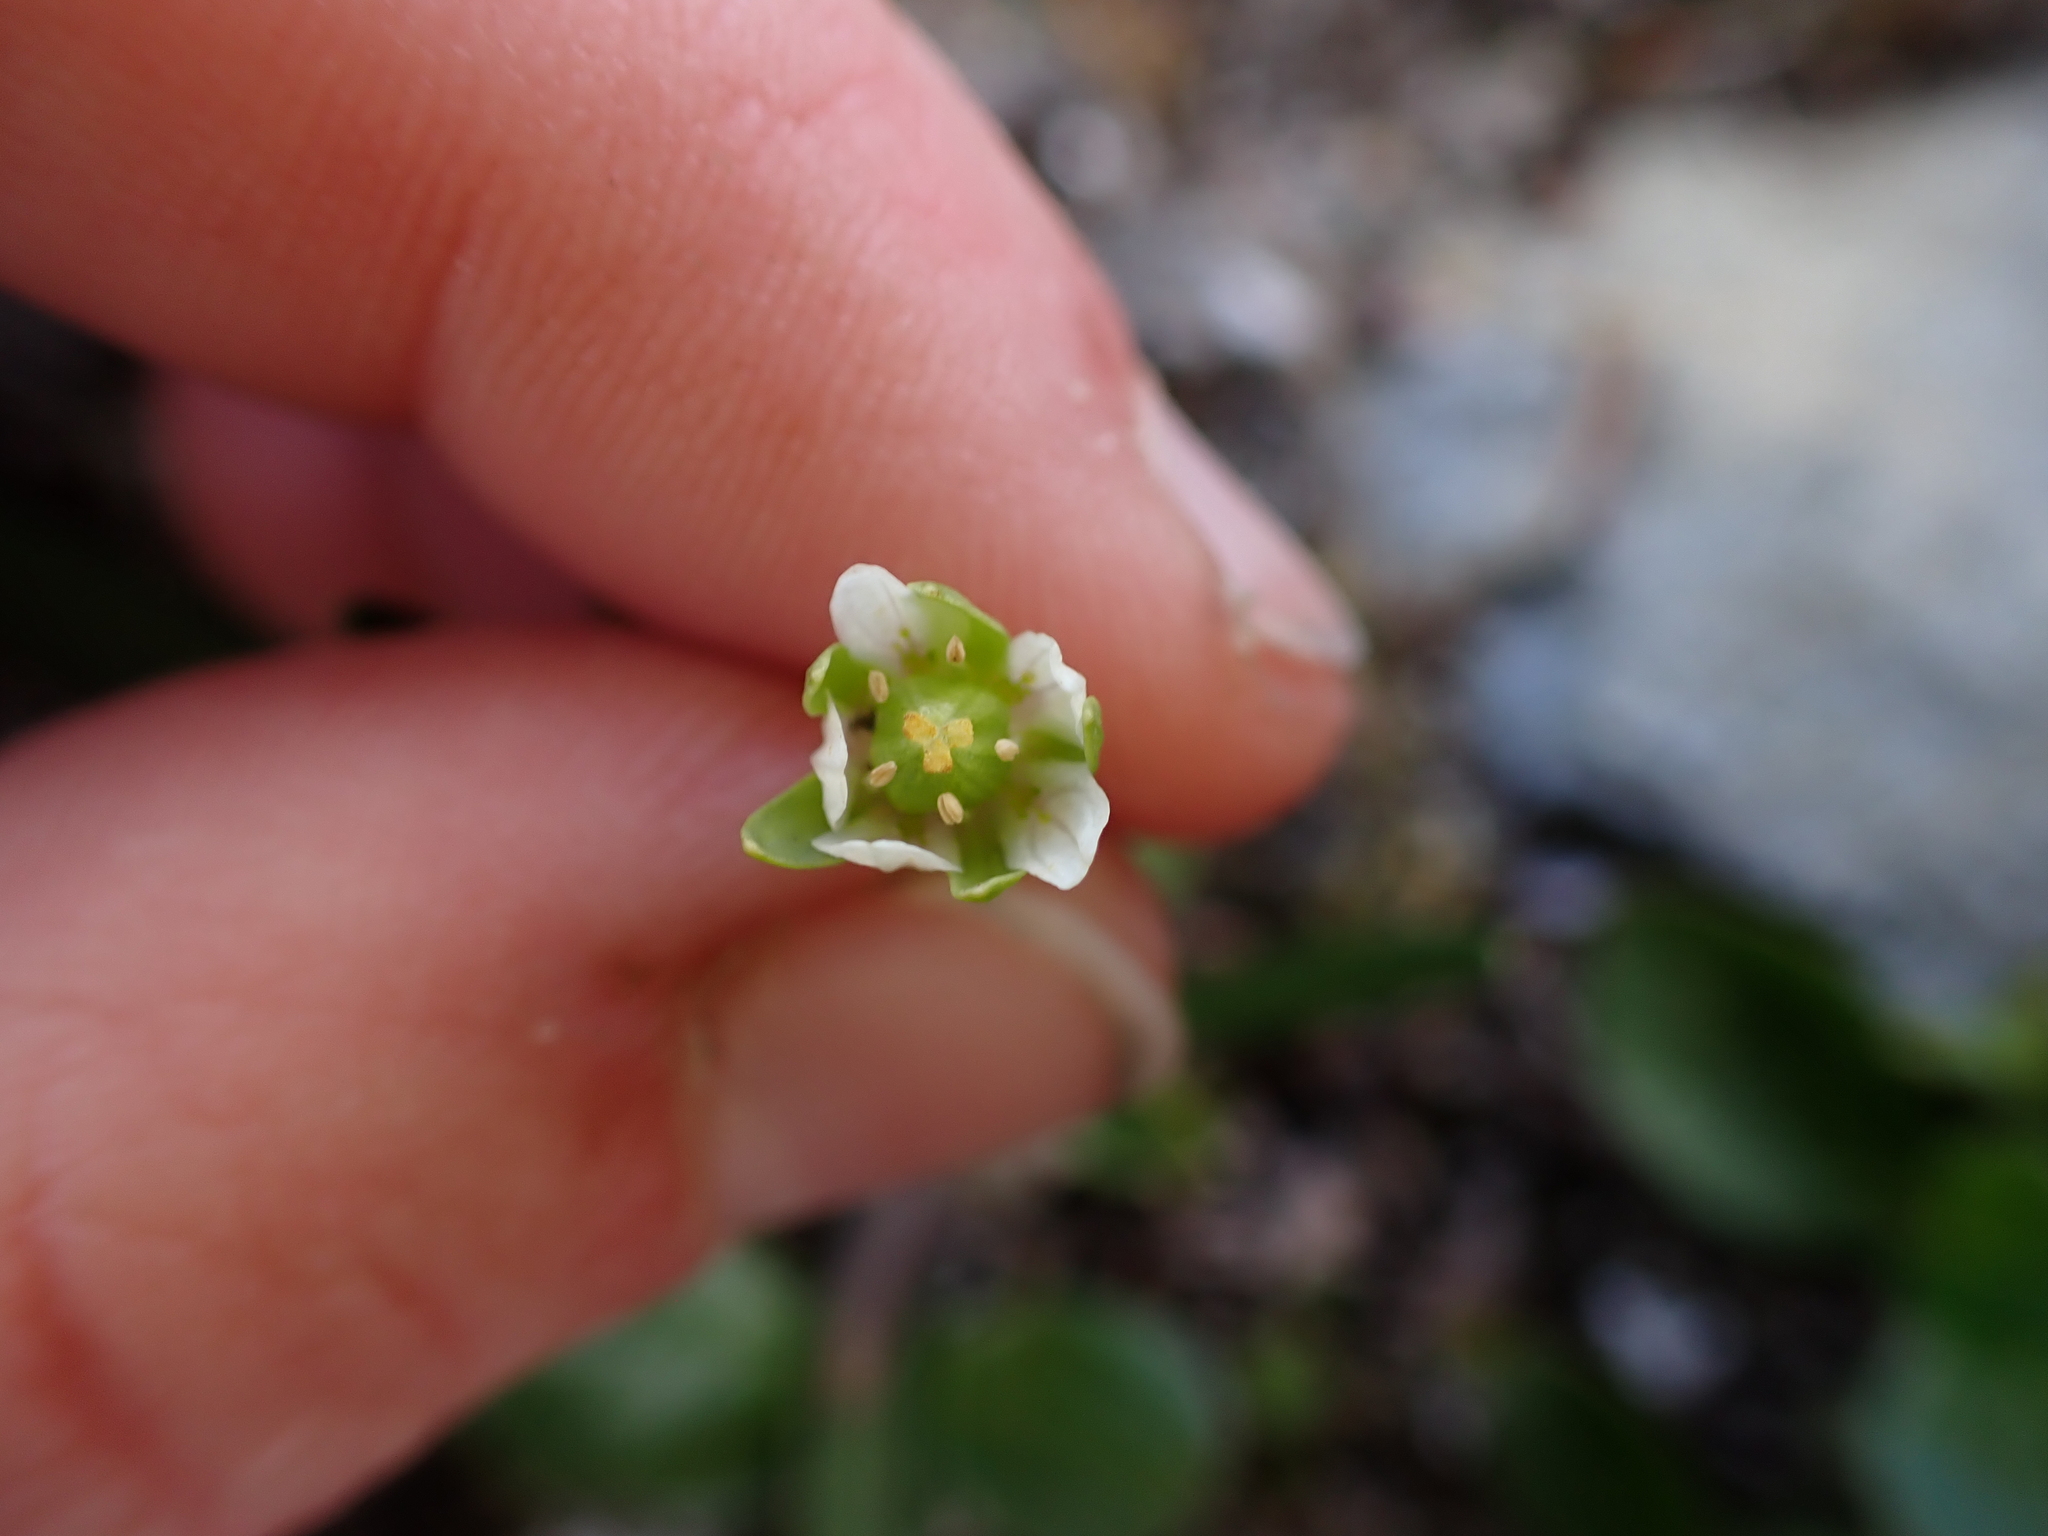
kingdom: Plantae
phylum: Tracheophyta
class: Magnoliopsida
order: Celastrales
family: Parnassiaceae
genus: Parnassia
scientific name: Parnassia kotzebuei
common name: Kotzebue's grass-of-parnassus
